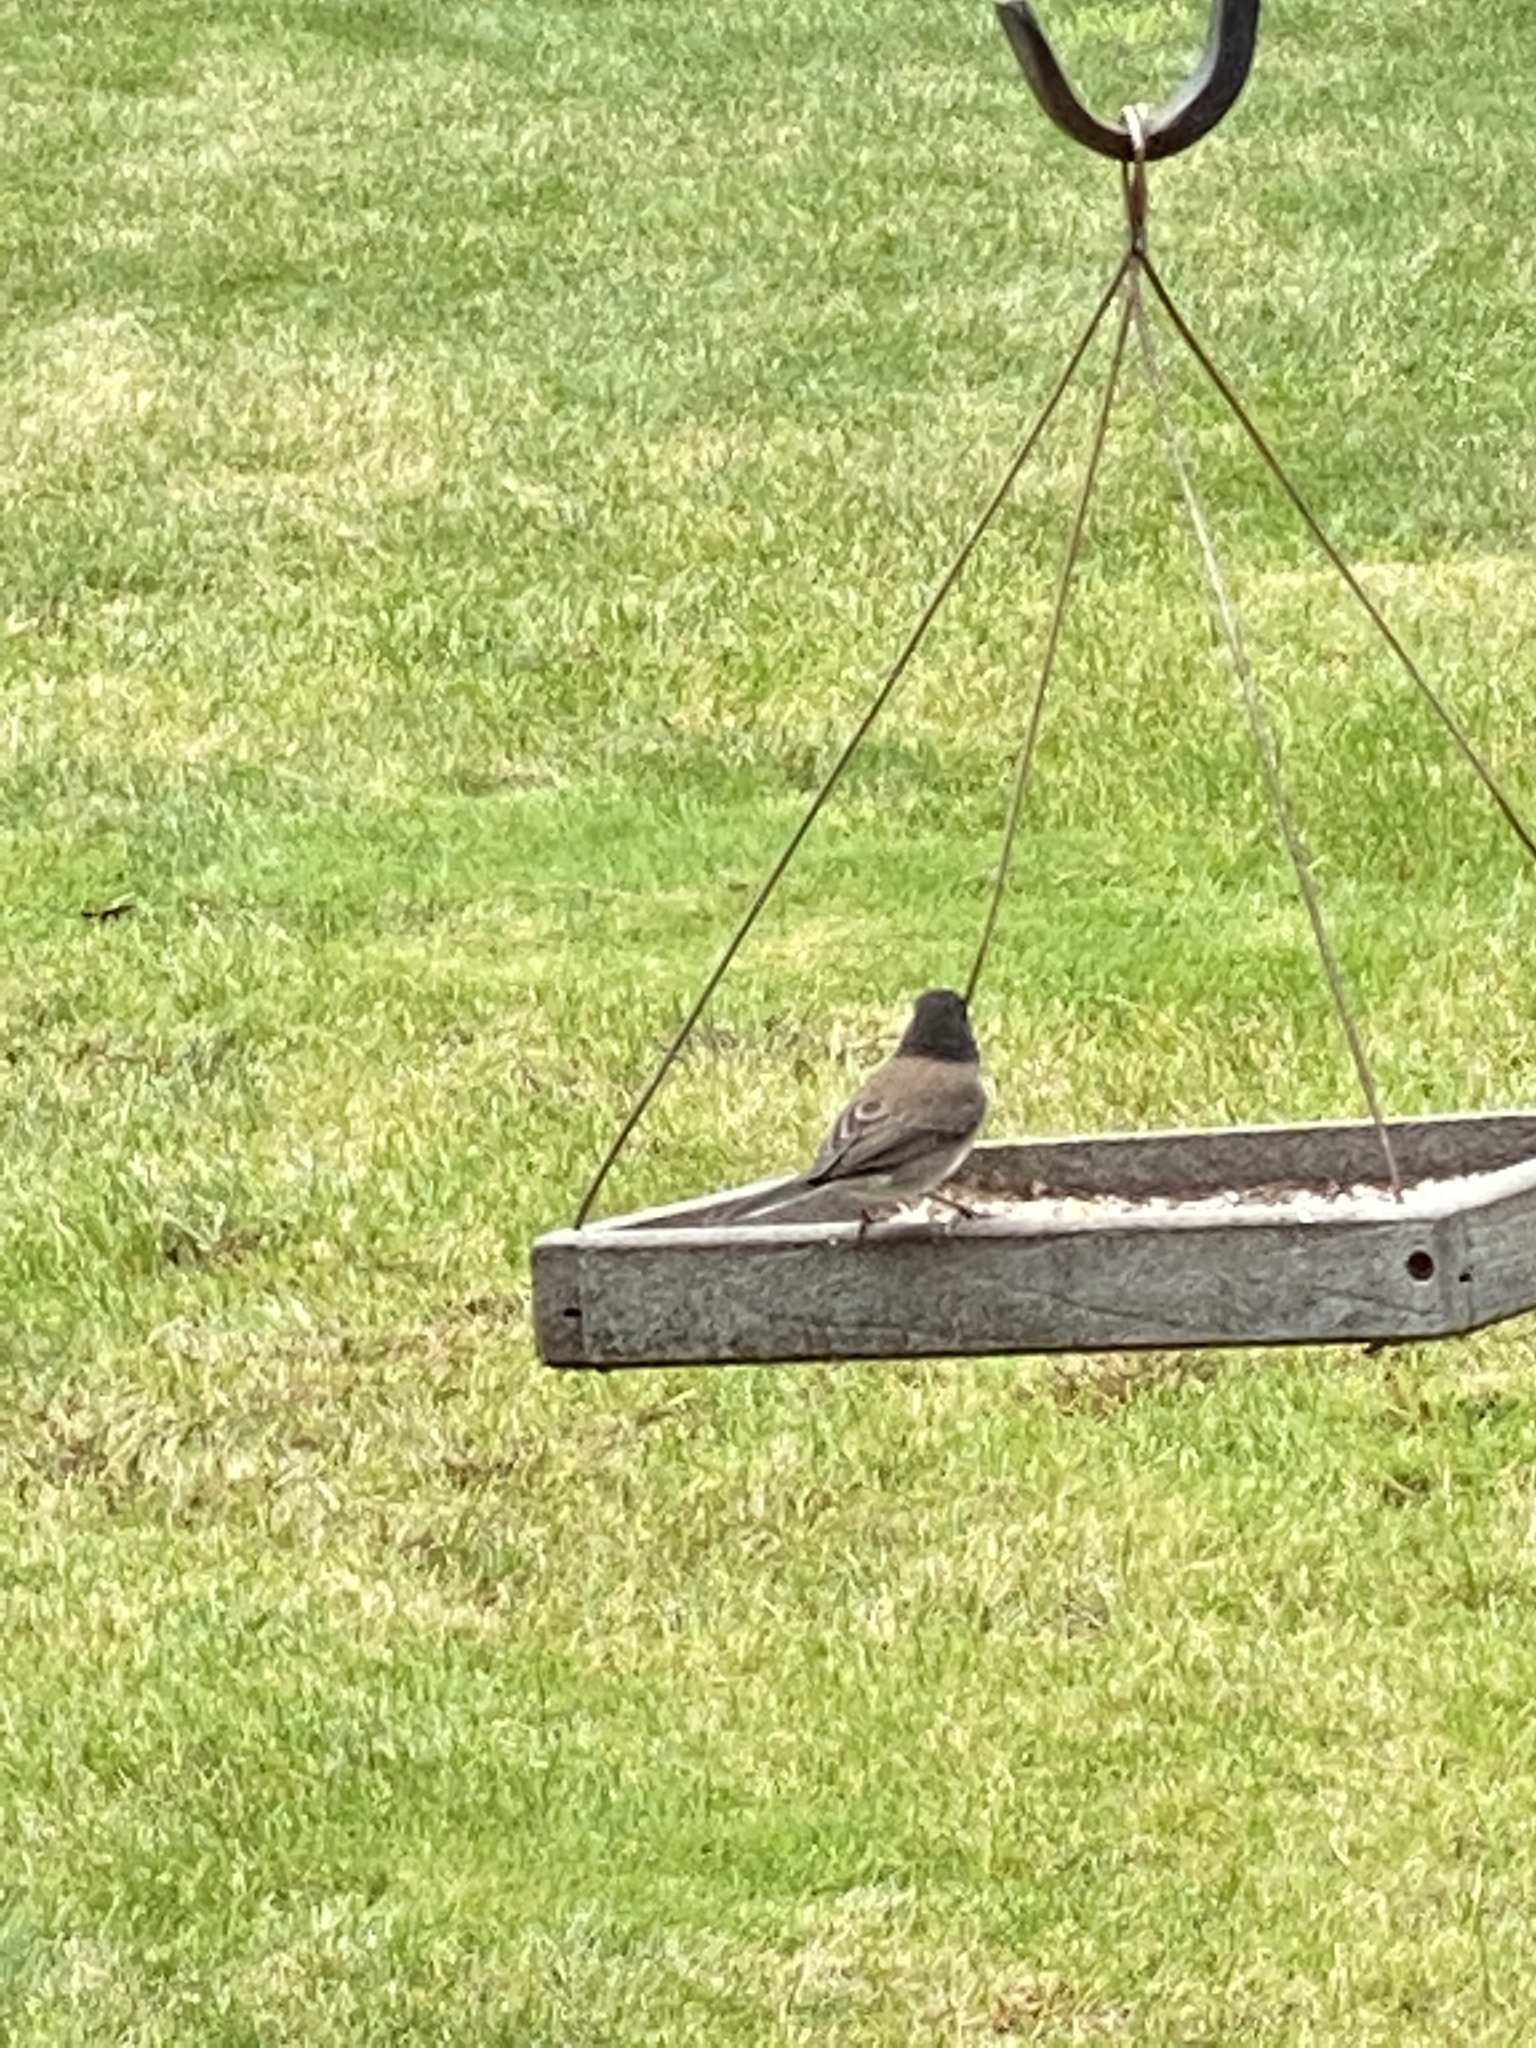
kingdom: Animalia
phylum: Chordata
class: Aves
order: Passeriformes
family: Passerellidae
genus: Junco
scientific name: Junco hyemalis
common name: Dark-eyed junco
